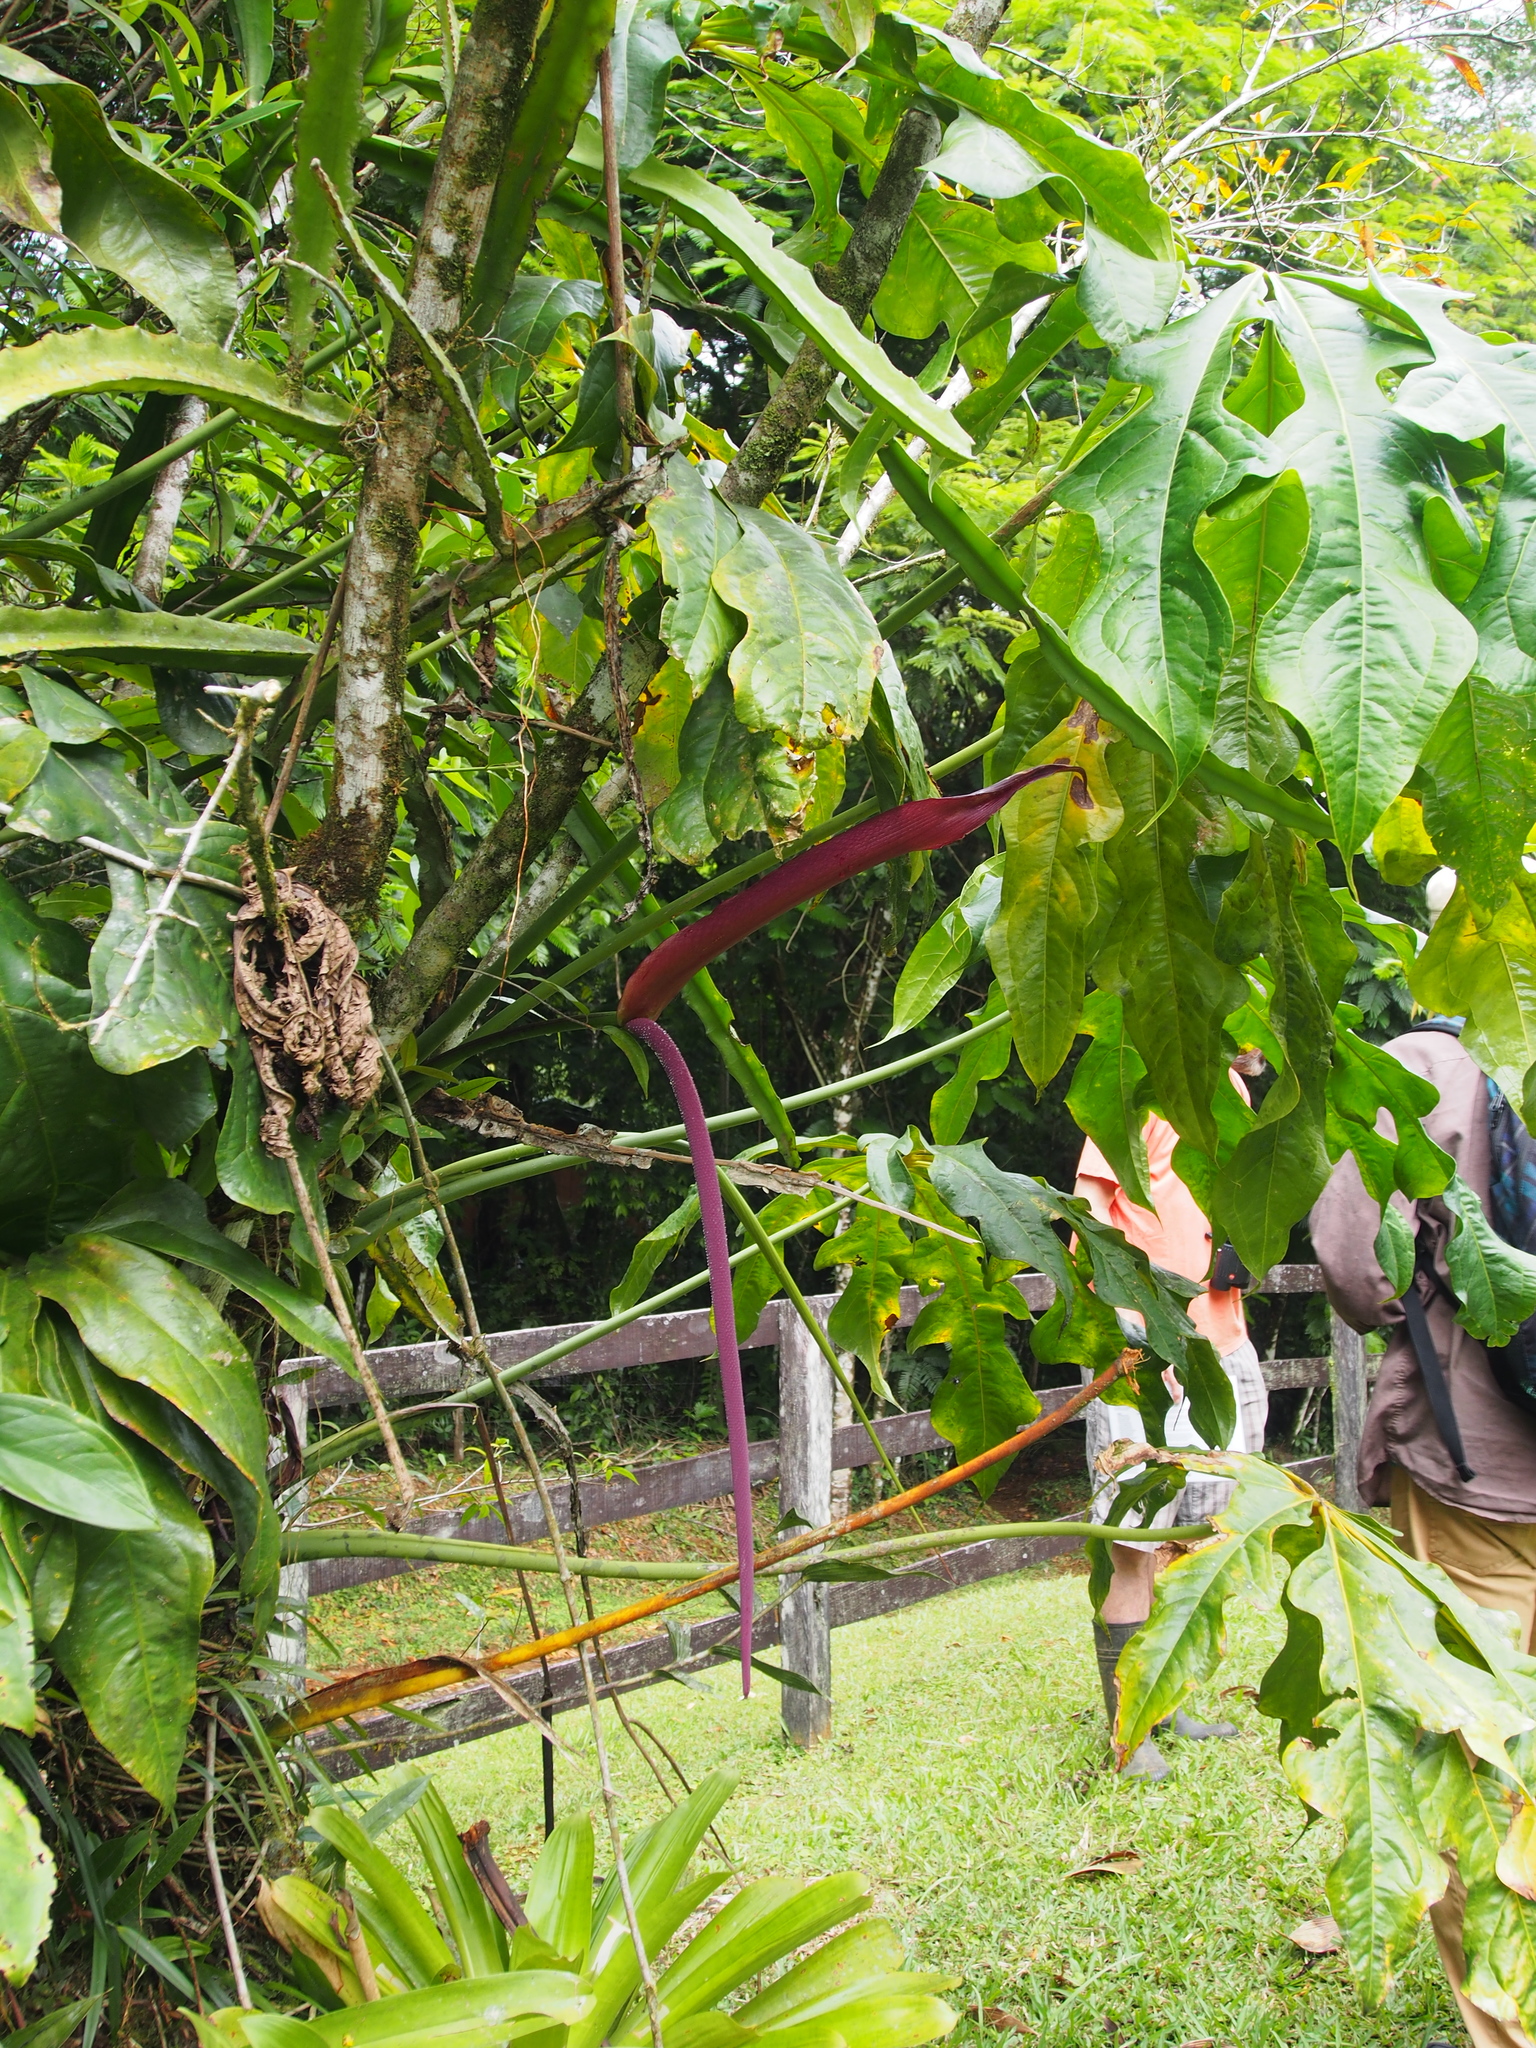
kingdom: Plantae
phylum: Tracheophyta
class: Liliopsida
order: Alismatales
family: Araceae
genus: Anthurium
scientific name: Anthurium clavigerum
